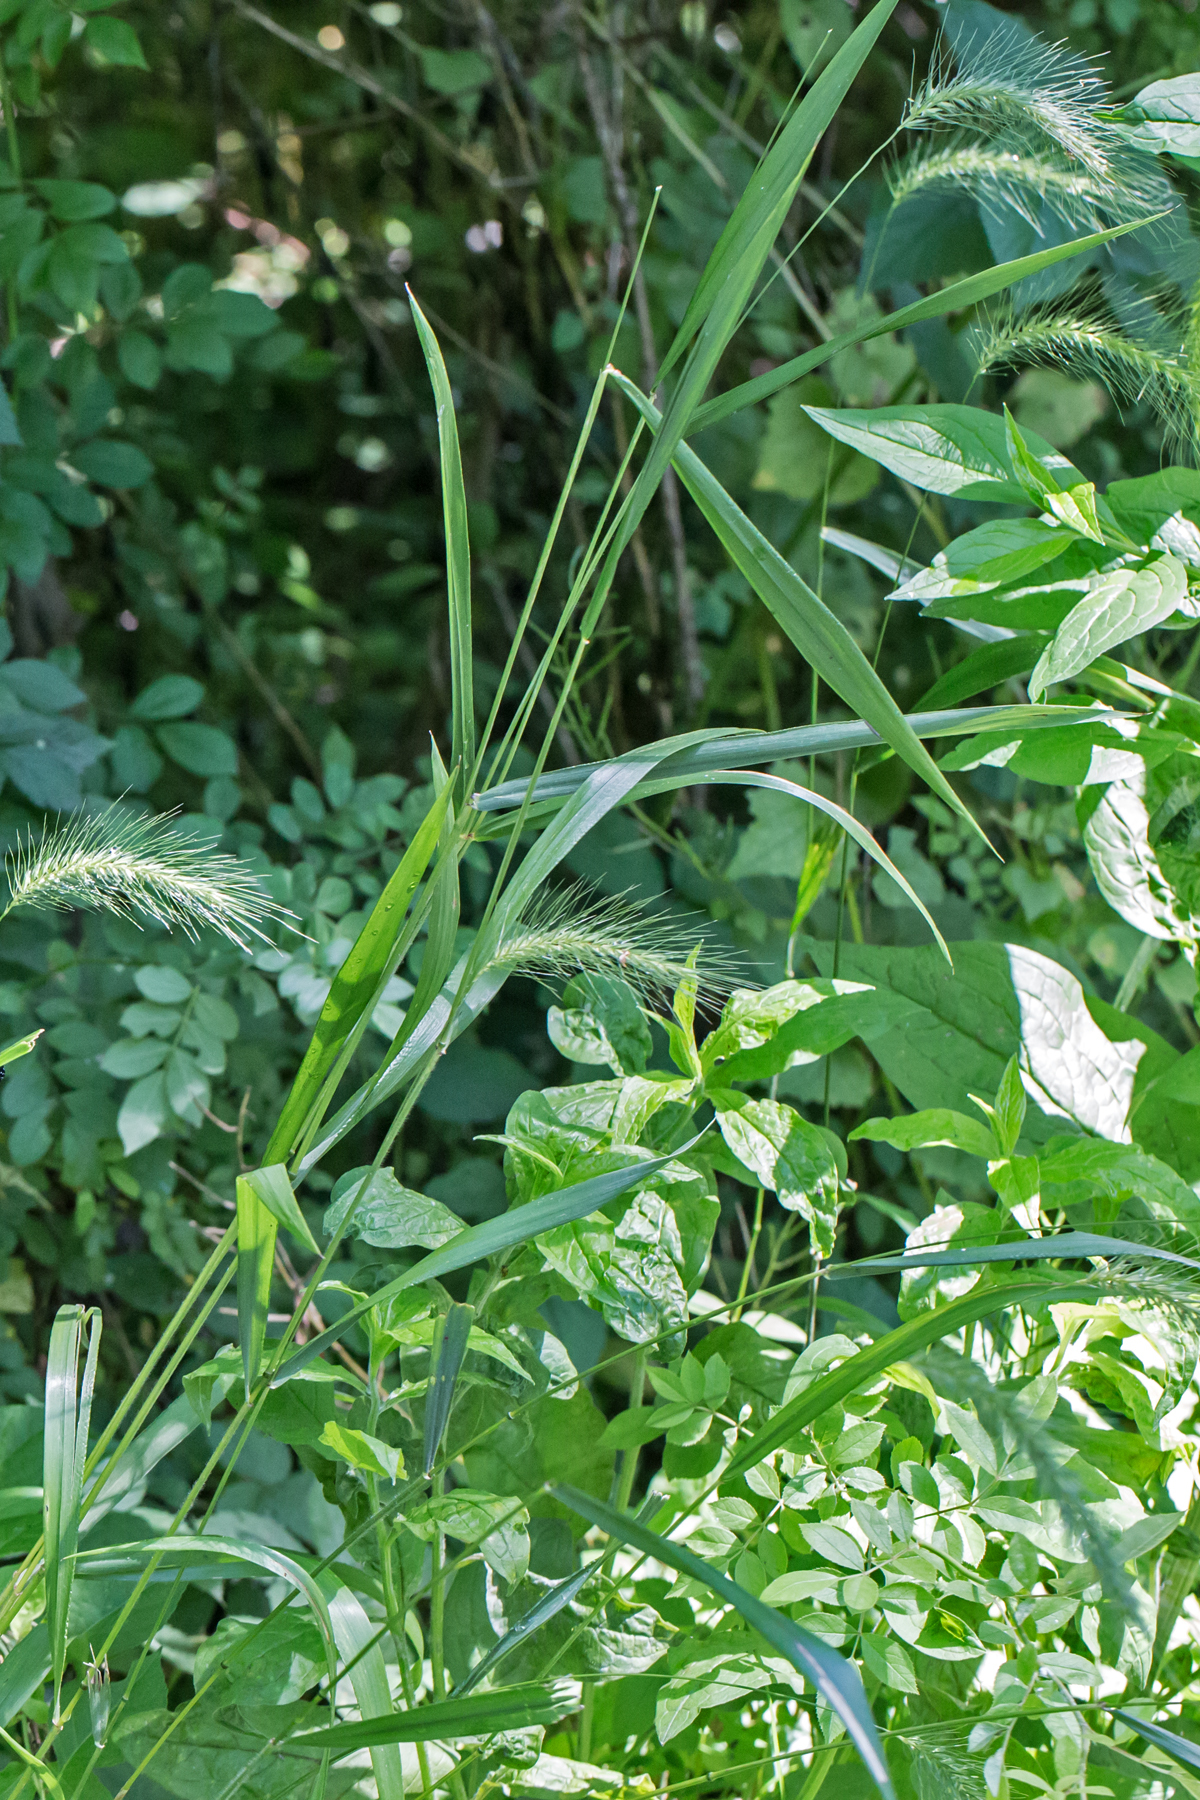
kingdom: Plantae
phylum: Tracheophyta
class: Liliopsida
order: Poales
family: Poaceae
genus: Elymus
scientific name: Elymus villosus
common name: Downy wild rye
